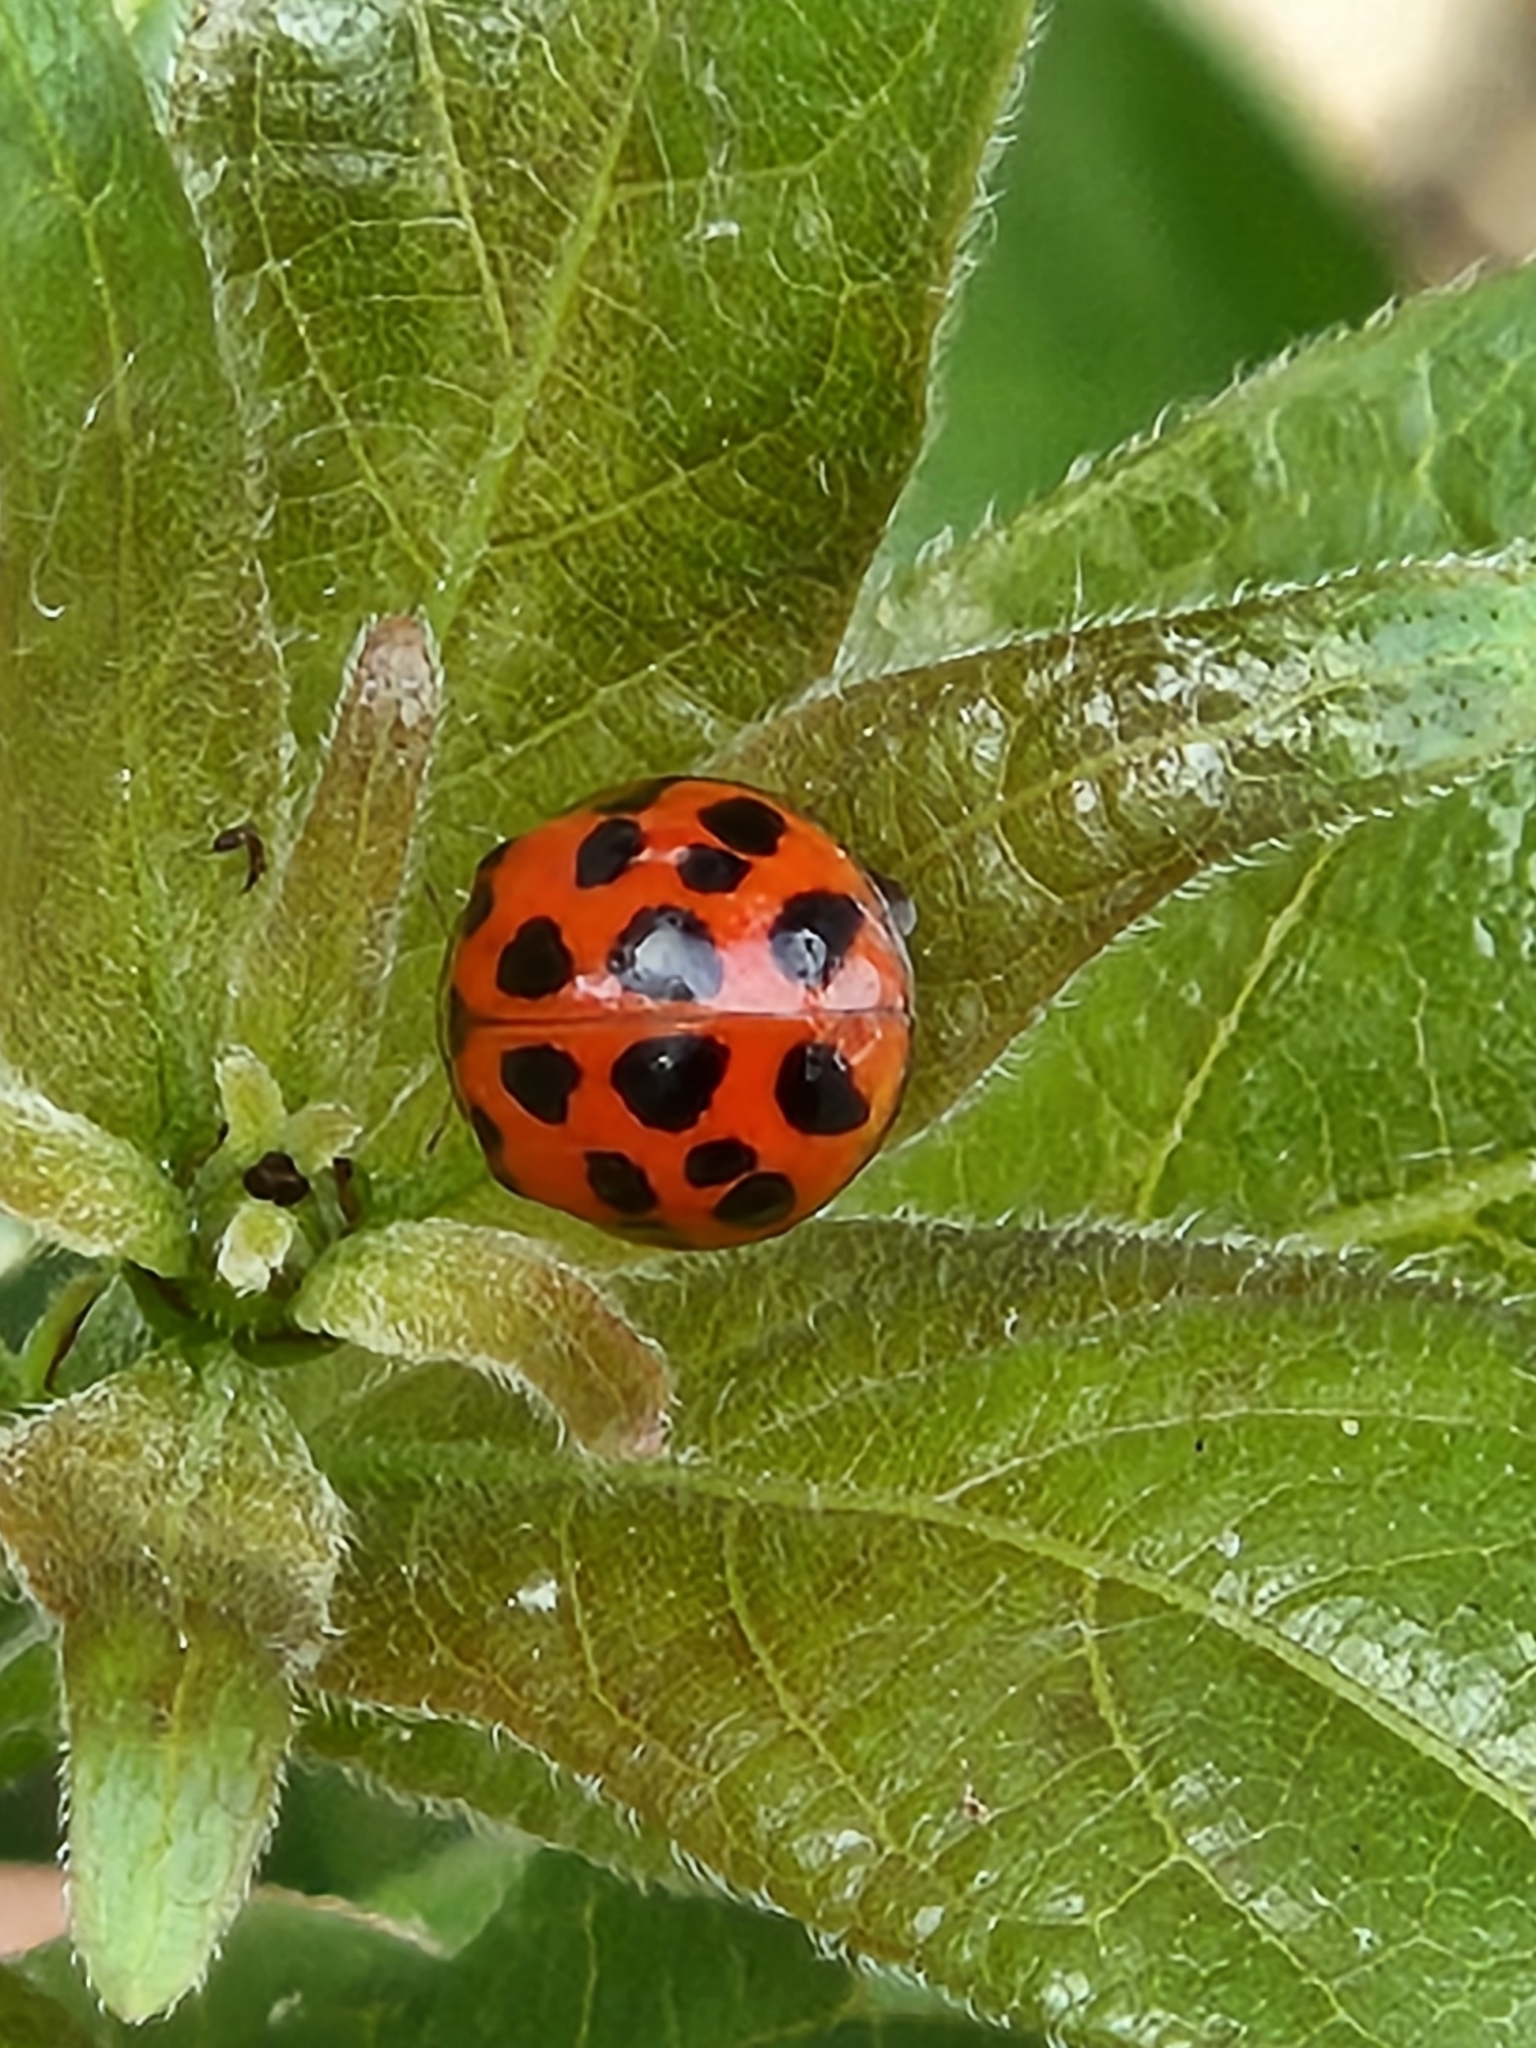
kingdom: Animalia
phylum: Arthropoda
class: Insecta
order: Coleoptera
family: Coccinellidae
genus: Harmonia
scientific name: Harmonia axyridis
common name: Harlequin ladybird
